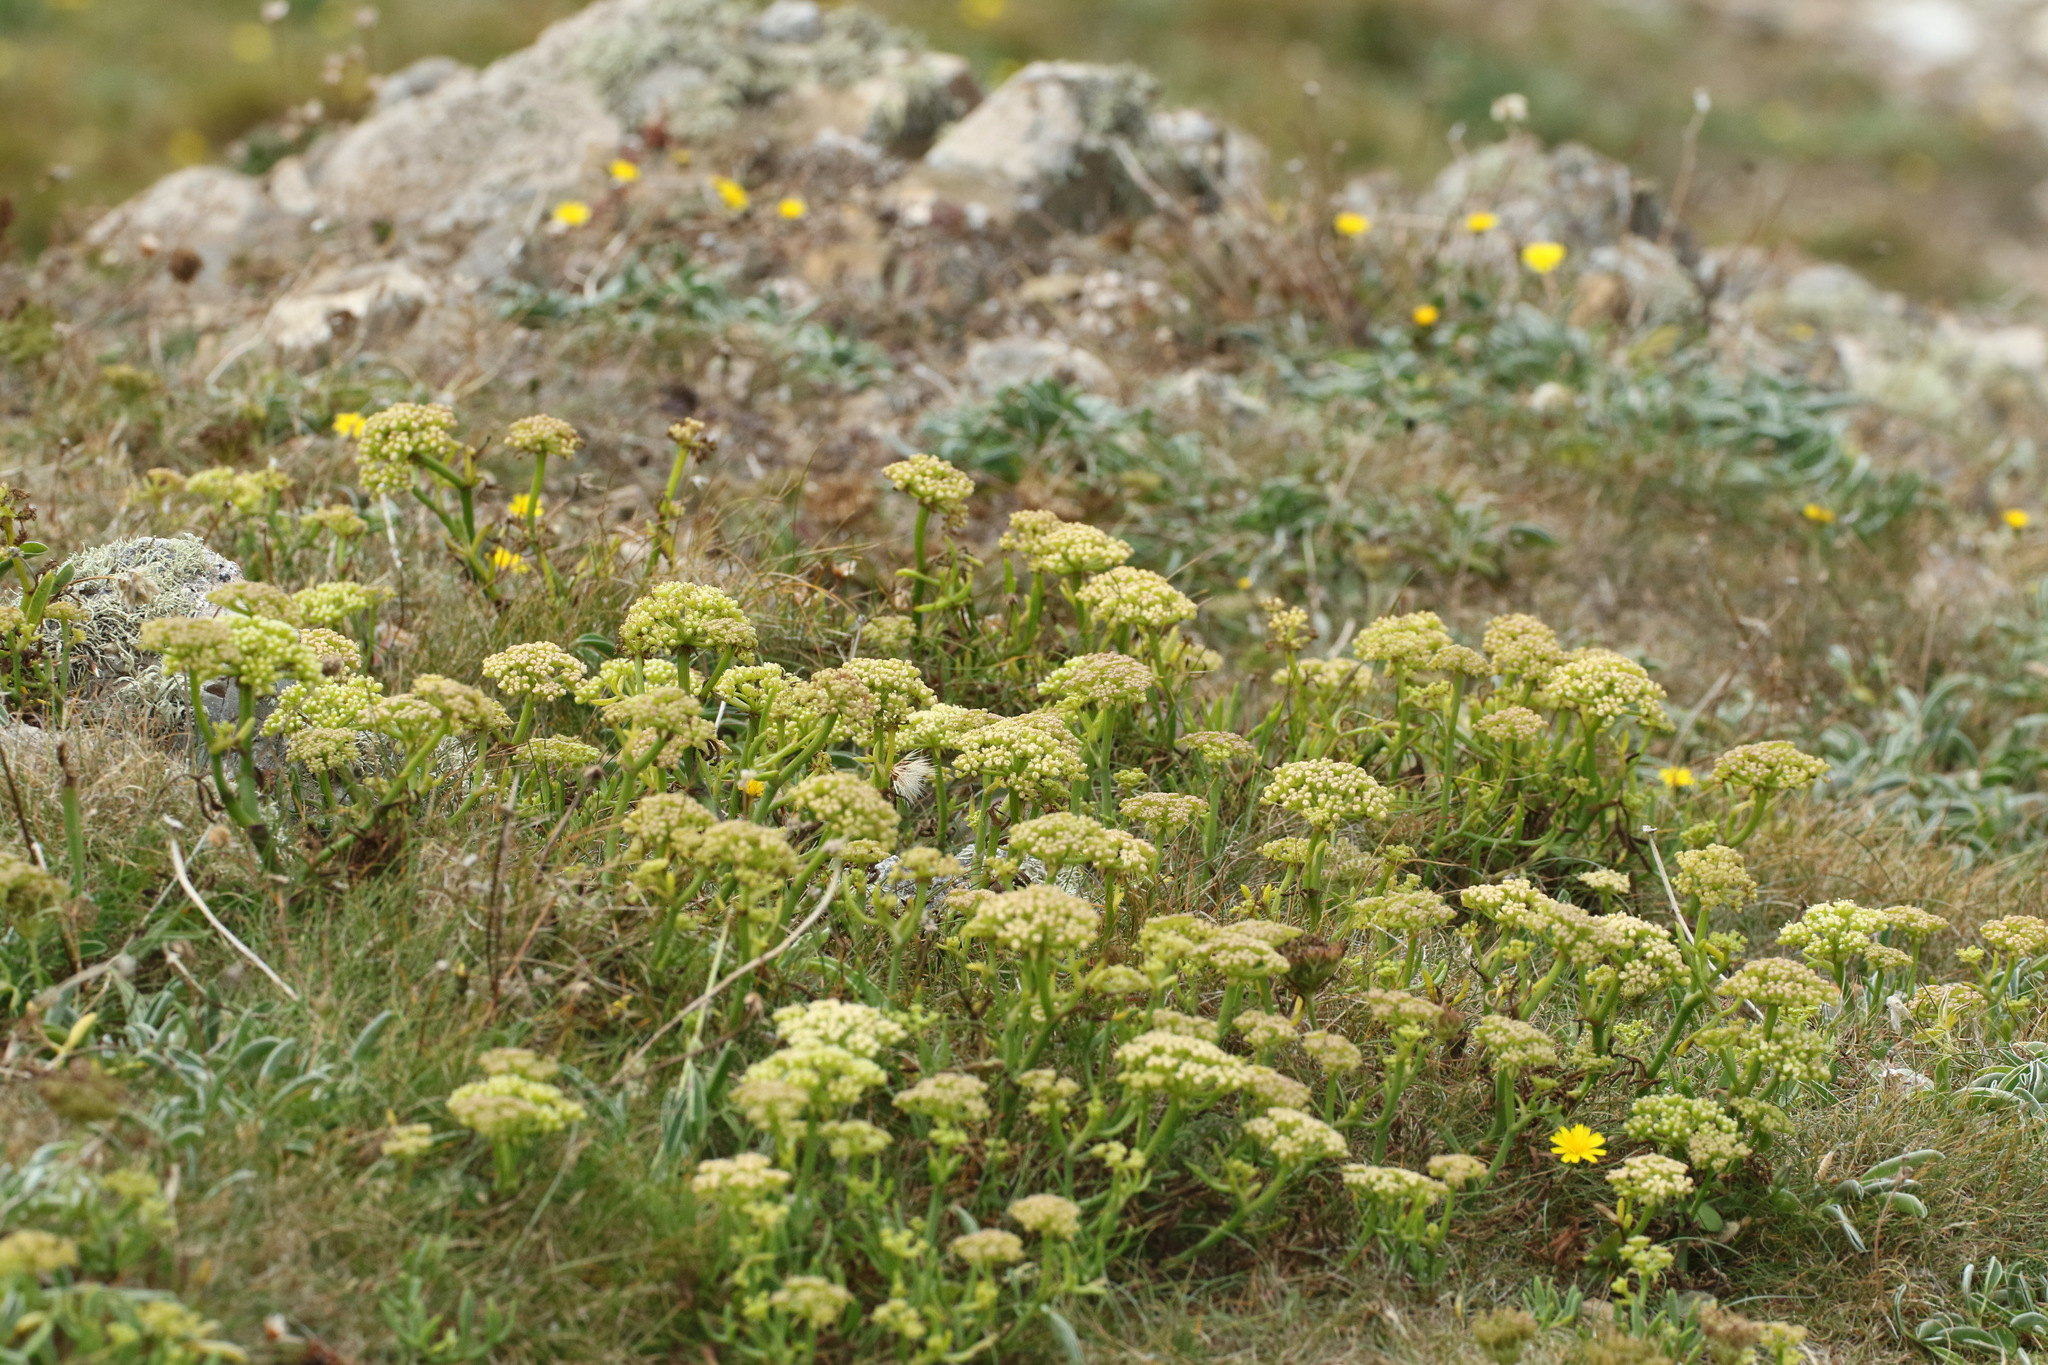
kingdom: Plantae
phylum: Tracheophyta
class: Magnoliopsida
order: Apiales
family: Apiaceae
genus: Crithmum
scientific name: Crithmum maritimum
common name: Rock samphire
